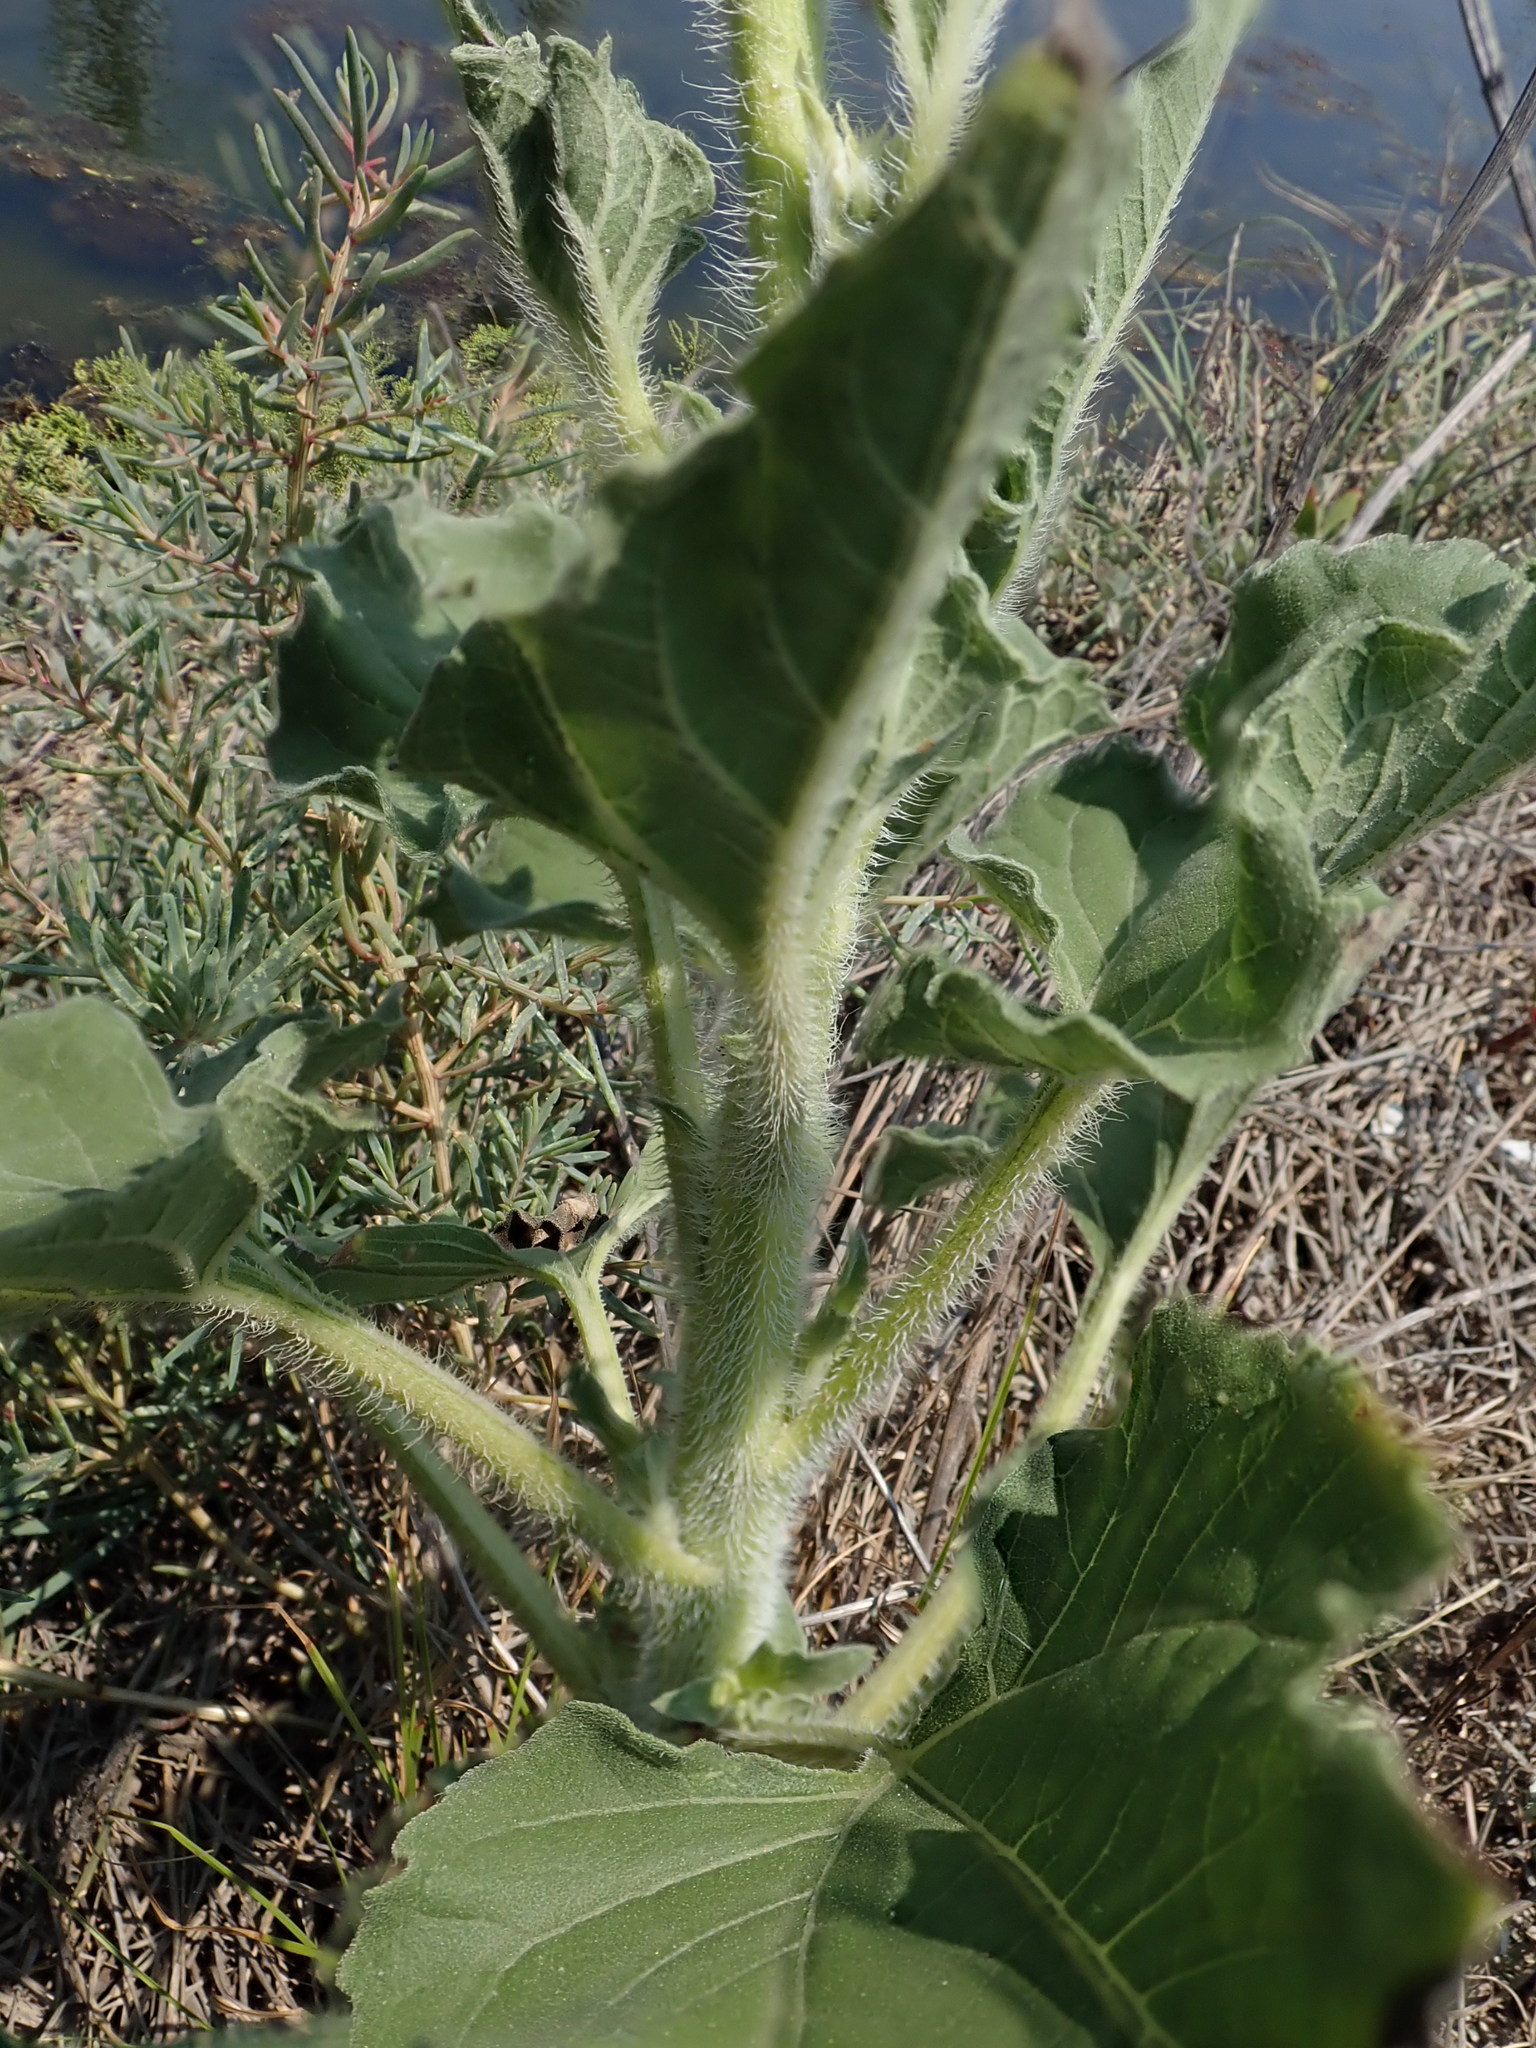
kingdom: Plantae
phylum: Tracheophyta
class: Magnoliopsida
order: Asterales
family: Asteraceae
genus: Helianthus
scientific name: Helianthus debilis
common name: Weak sunflower
